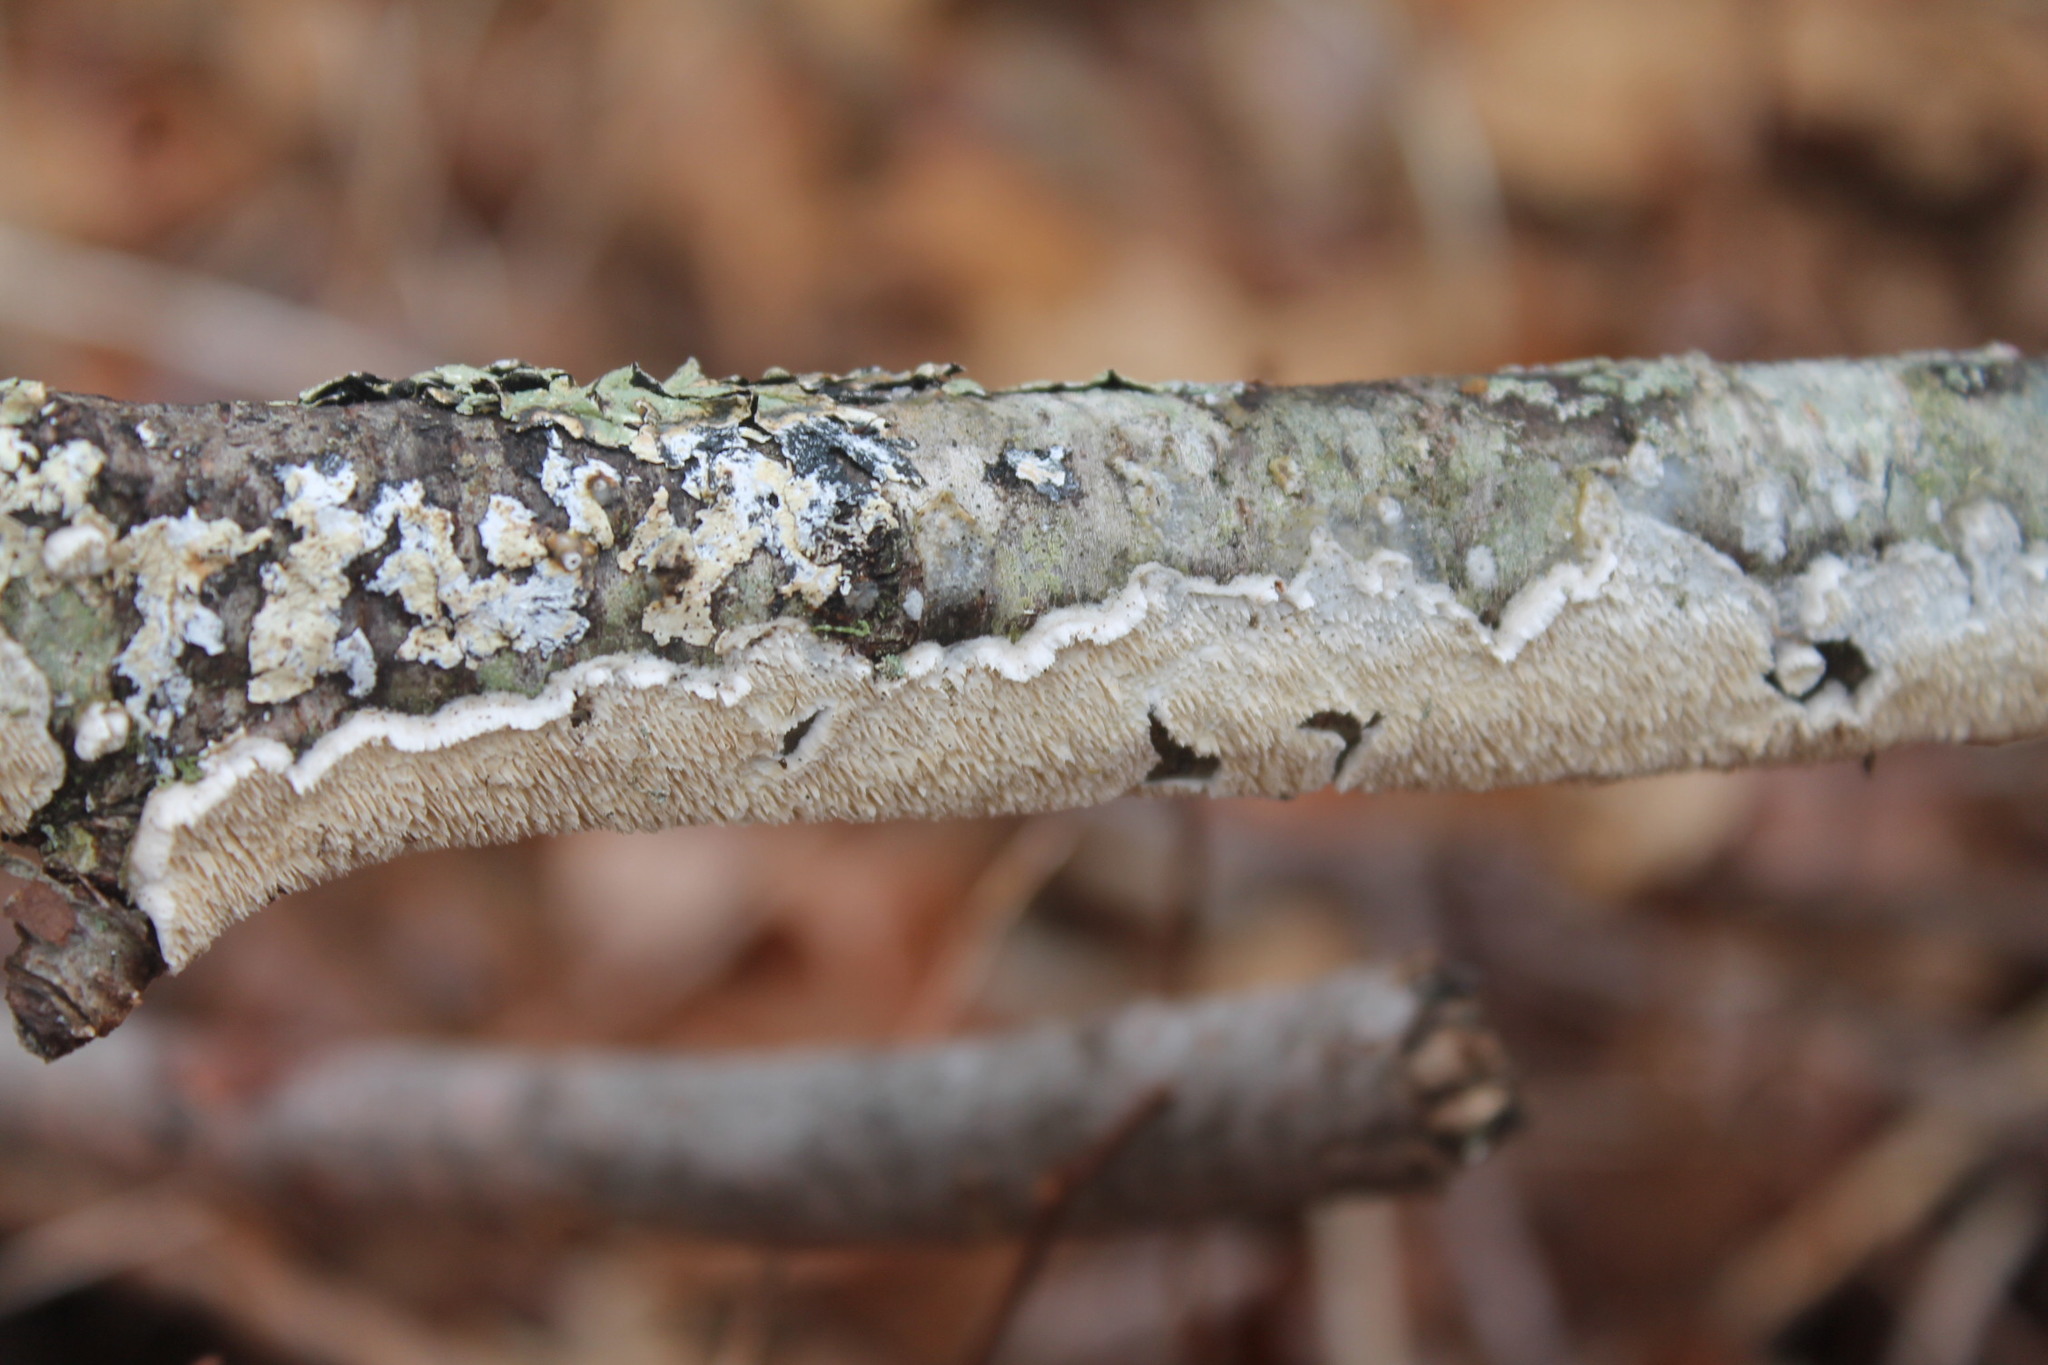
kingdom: Fungi
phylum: Basidiomycota
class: Agaricomycetes
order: Polyporales
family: Irpicaceae
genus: Irpex
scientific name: Irpex lacteus
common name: Milk-white toothed polypore
